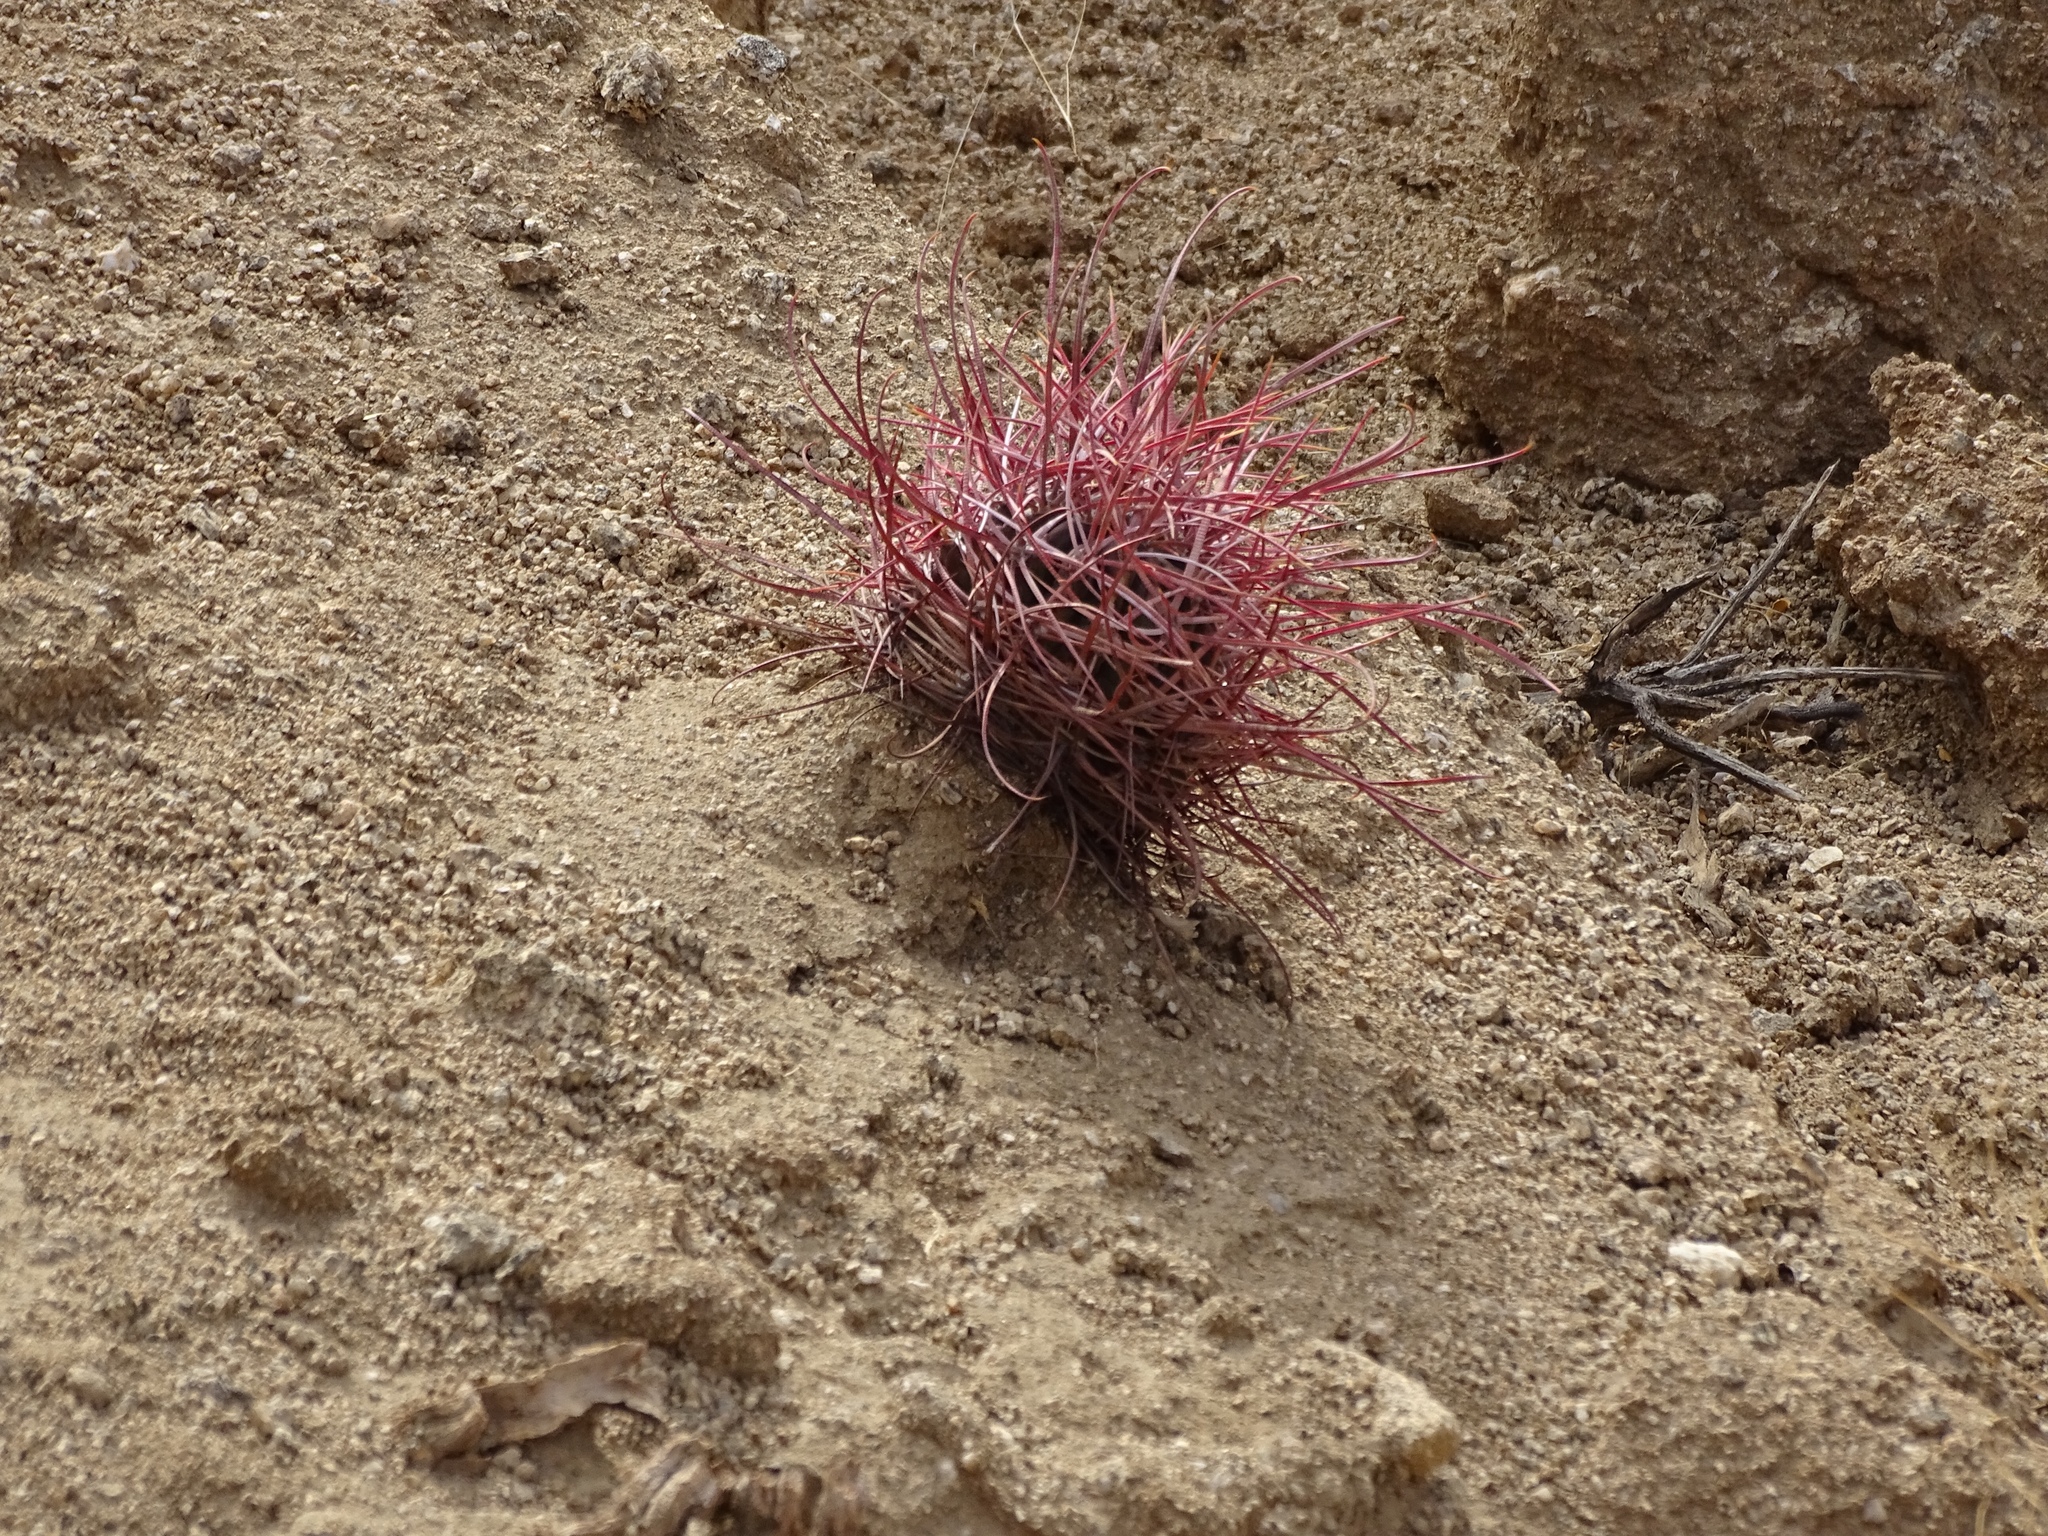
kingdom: Plantae
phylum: Tracheophyta
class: Magnoliopsida
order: Caryophyllales
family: Cactaceae
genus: Ferocactus
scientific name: Ferocactus cylindraceus
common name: California barrel cactus
